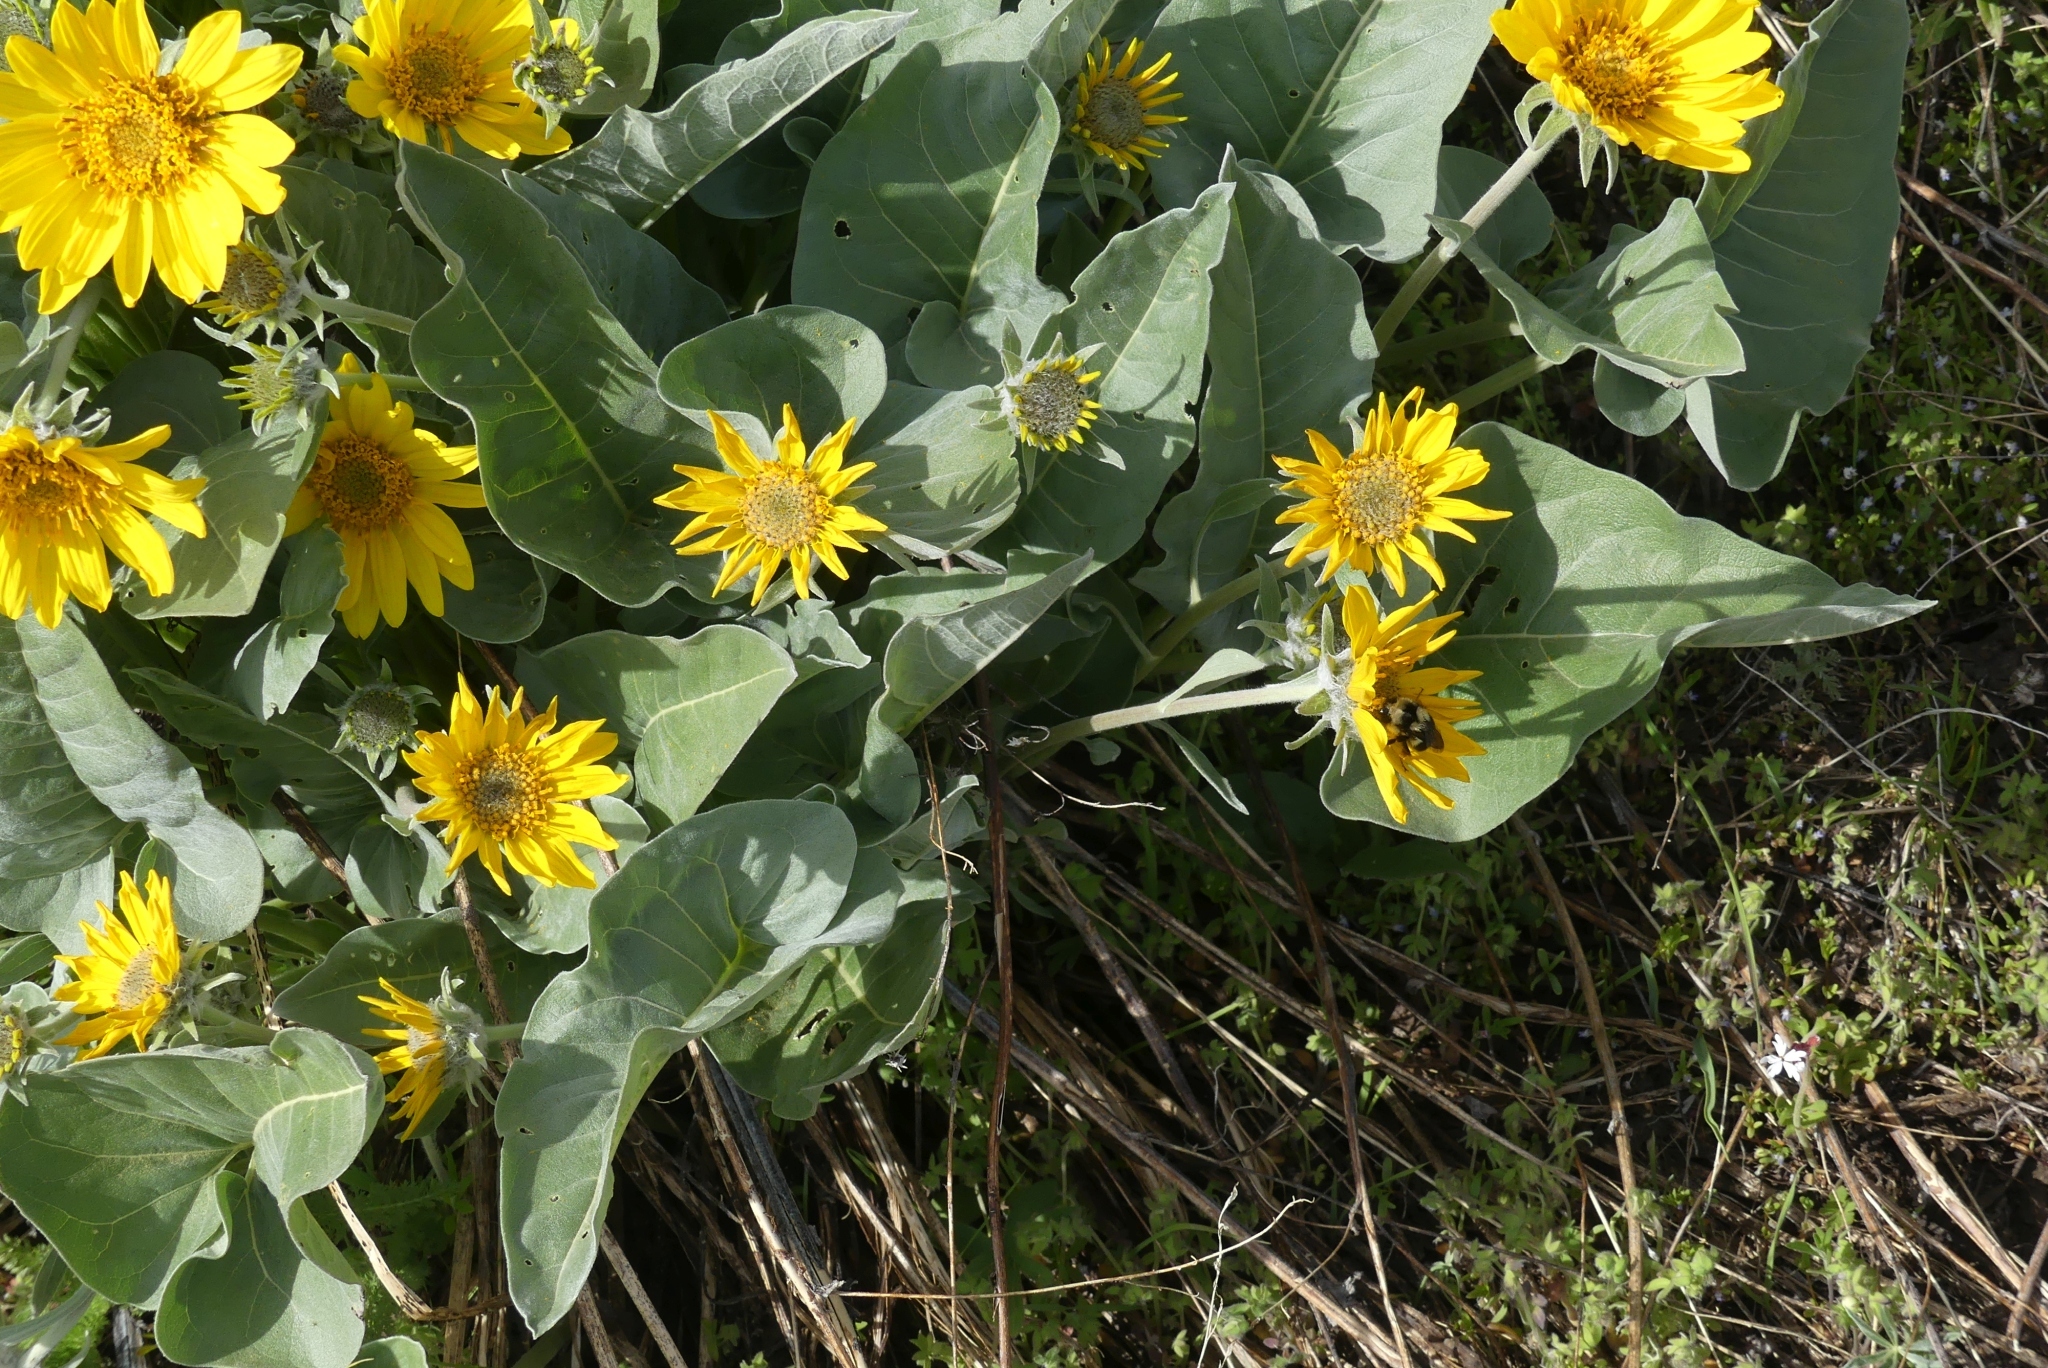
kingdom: Plantae
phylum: Tracheophyta
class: Magnoliopsida
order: Asterales
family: Asteraceae
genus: Wyethia
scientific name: Wyethia sagittata
